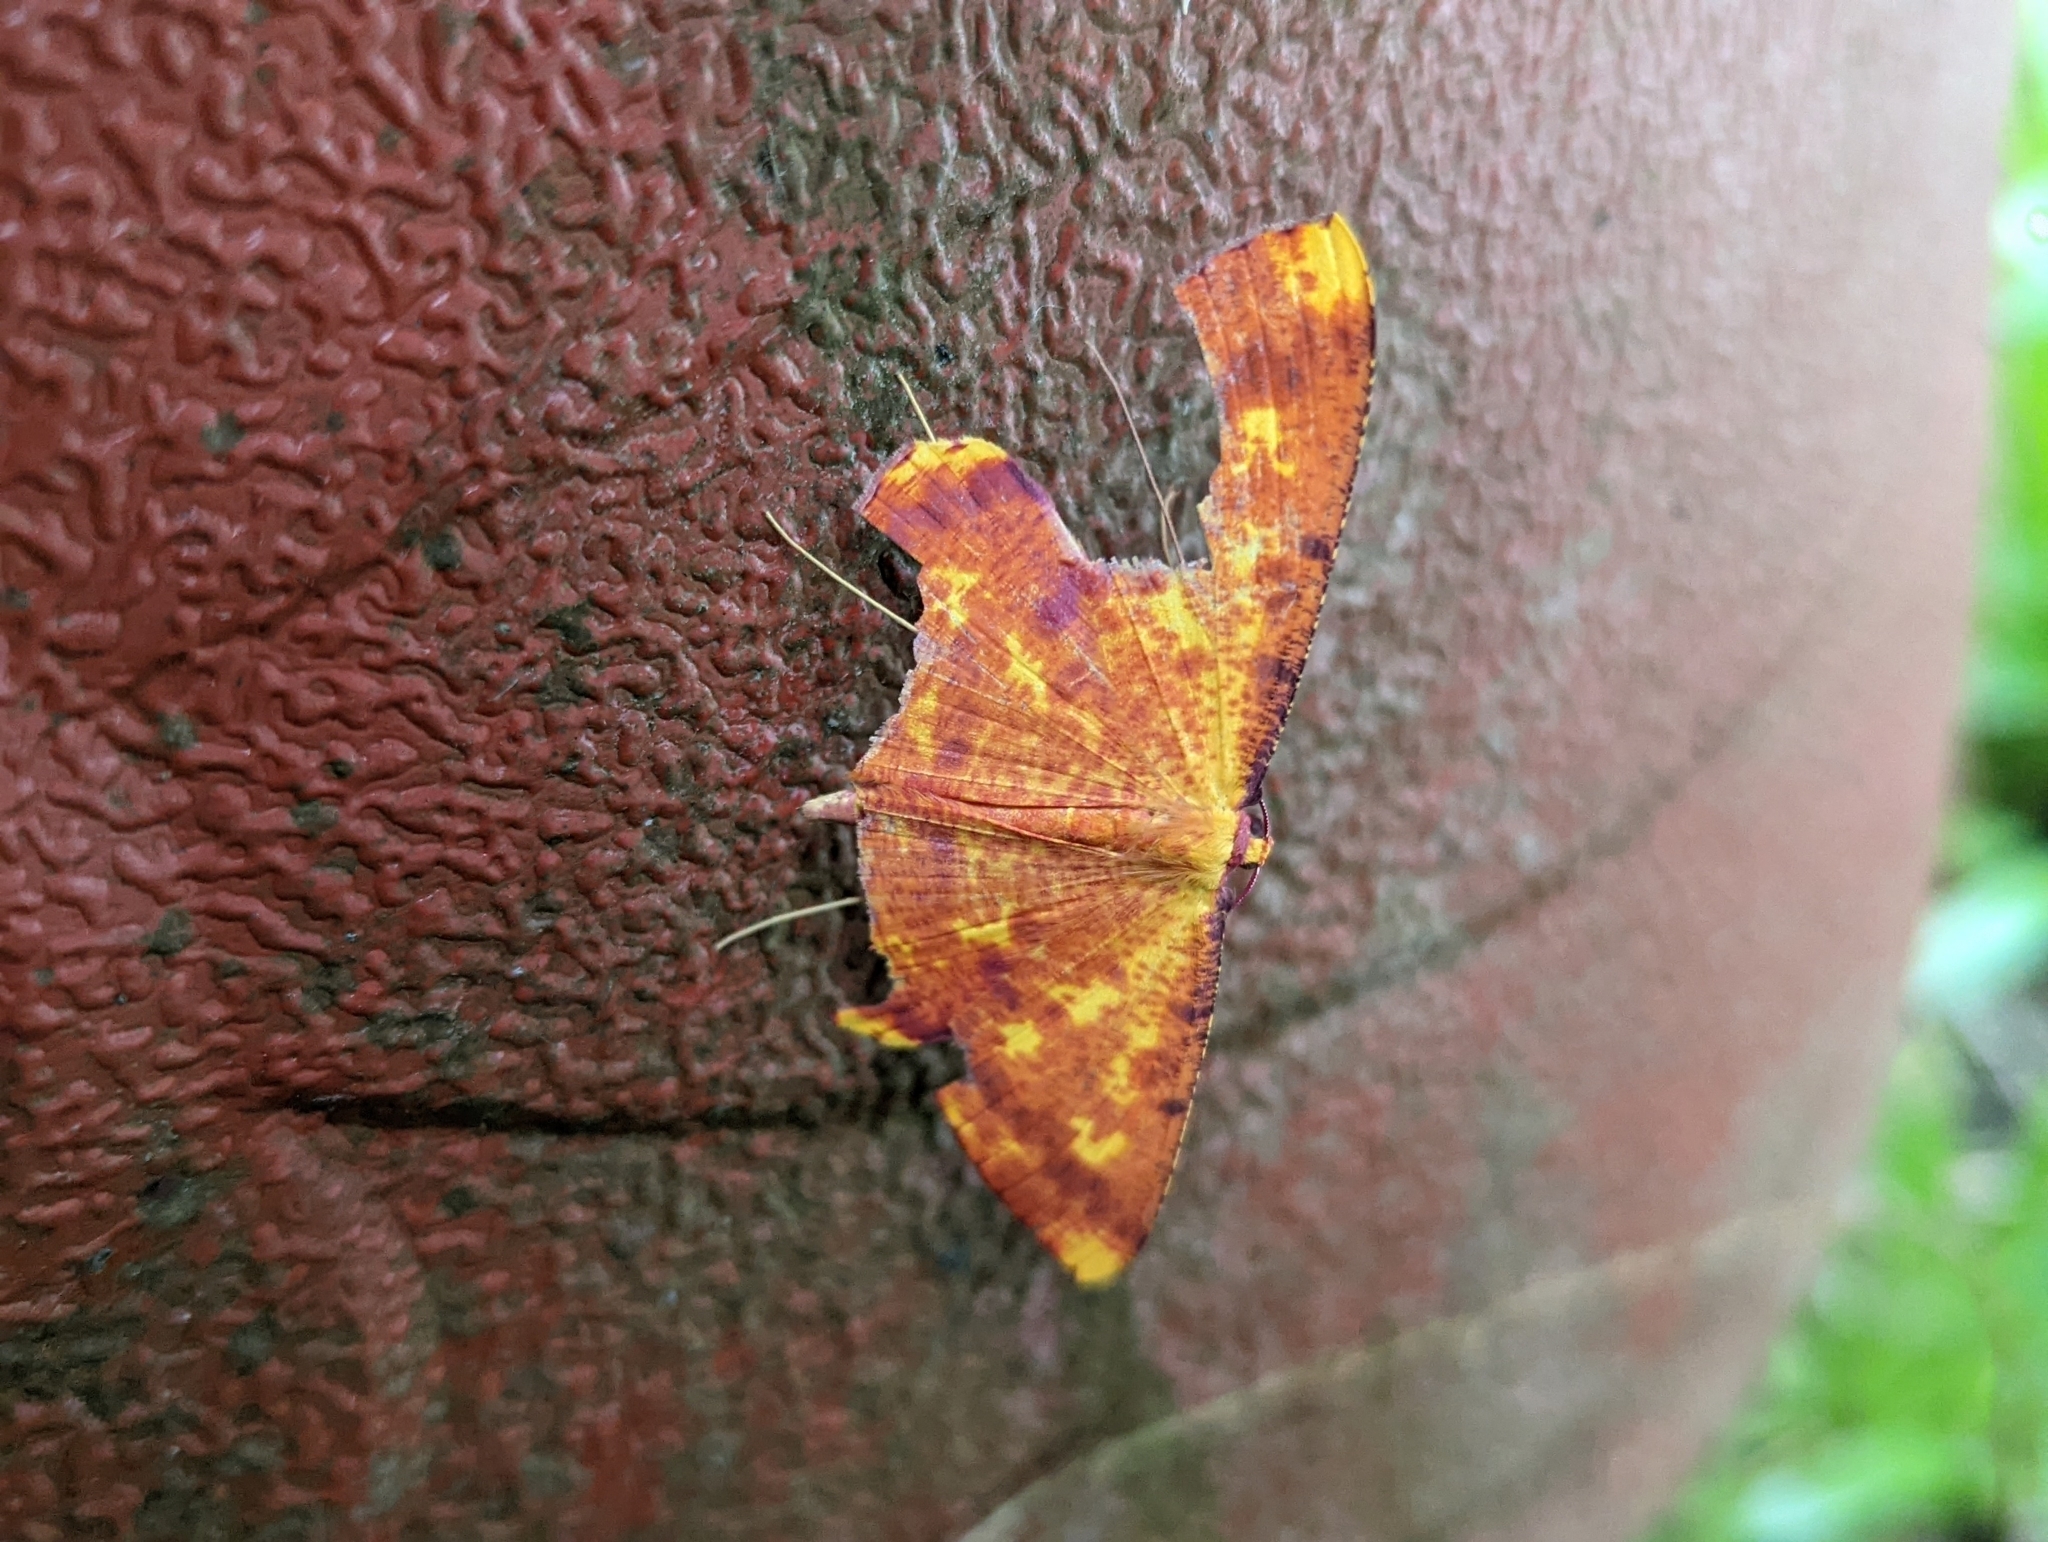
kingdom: Animalia
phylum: Arthropoda
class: Insecta
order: Lepidoptera
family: Geometridae
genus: Eumelea
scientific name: Eumelea ludovicata
